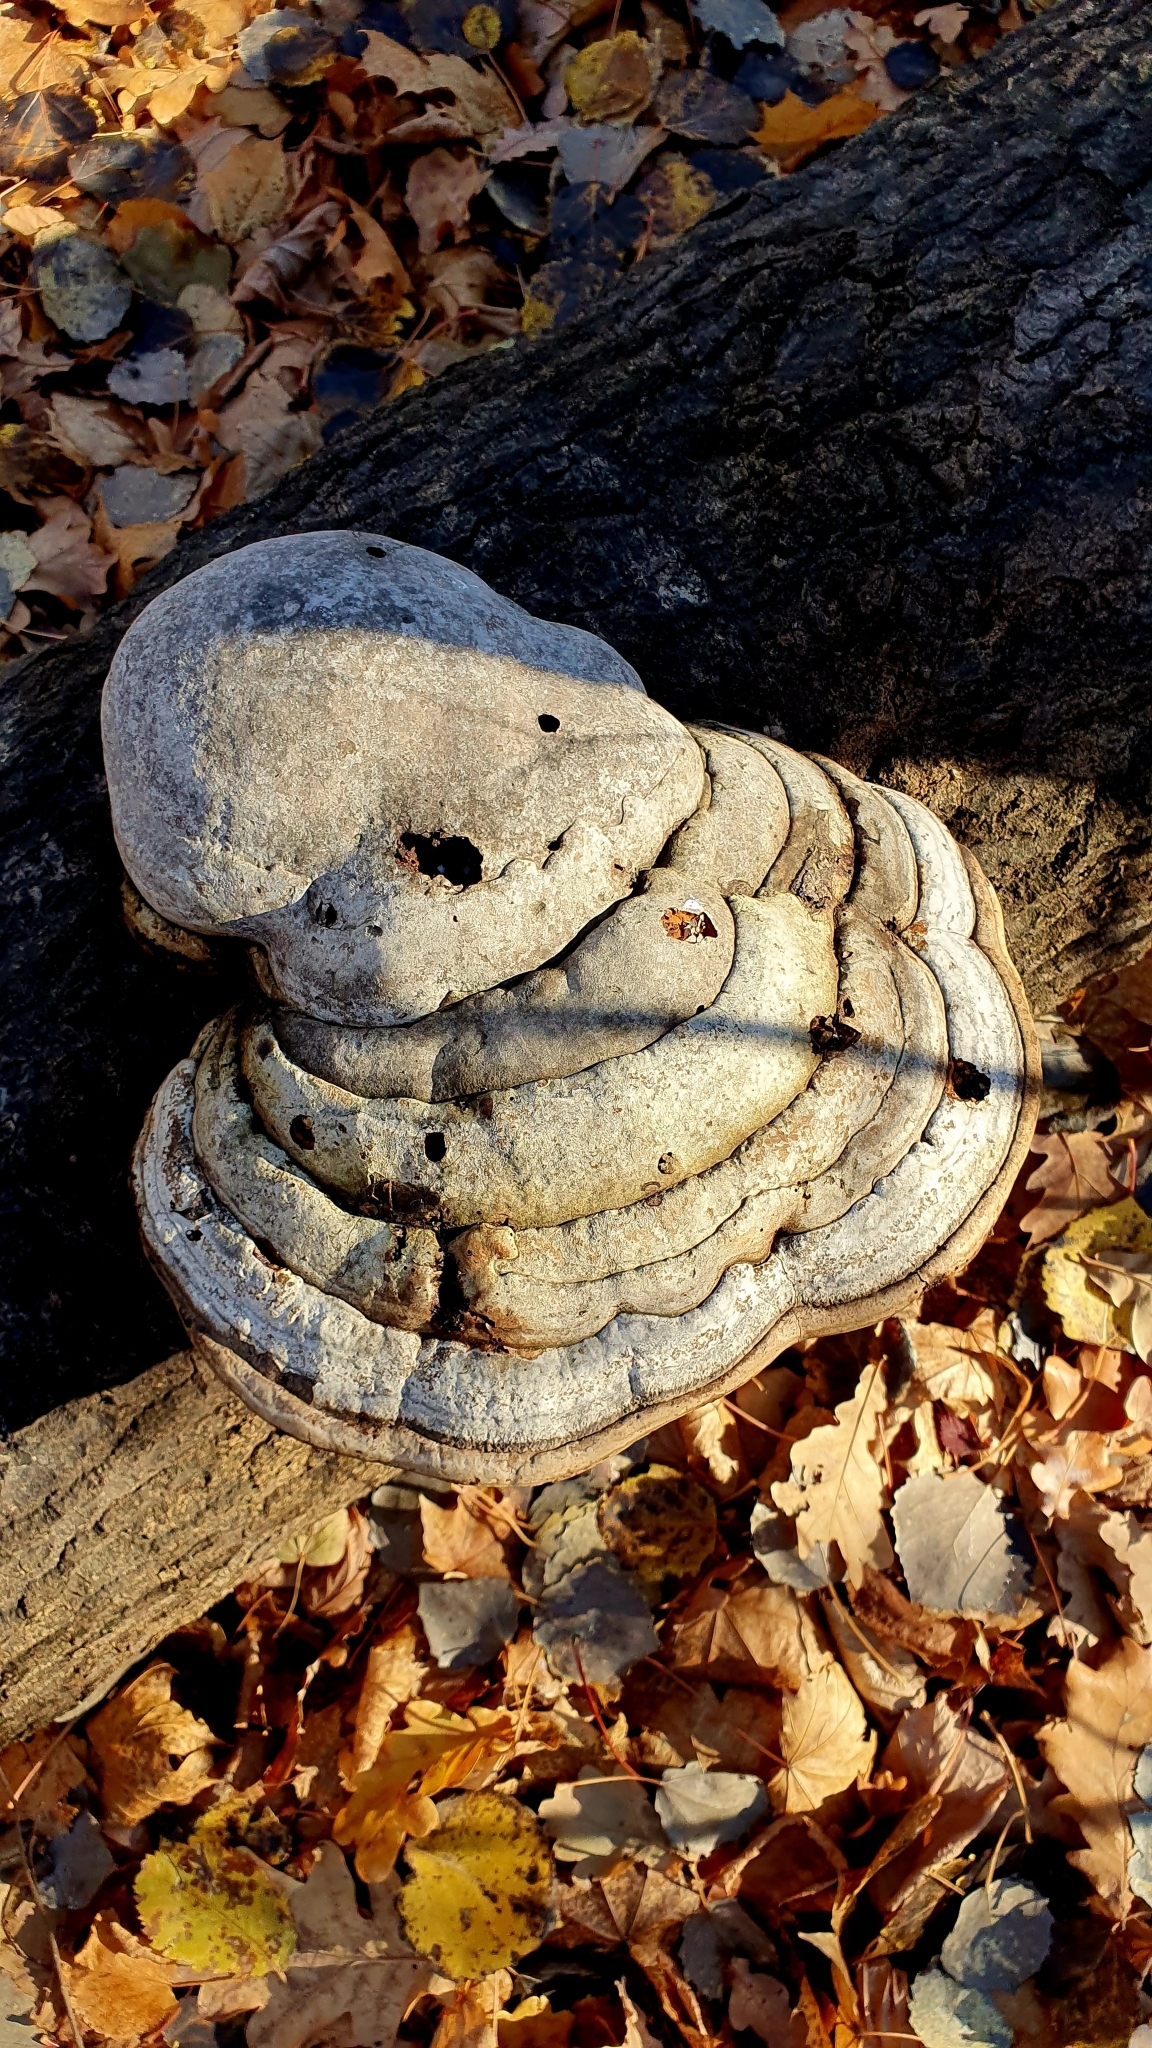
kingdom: Fungi
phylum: Basidiomycota
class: Agaricomycetes
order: Polyporales
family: Polyporaceae
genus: Fomes
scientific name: Fomes fomentarius
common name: Hoof fungus
